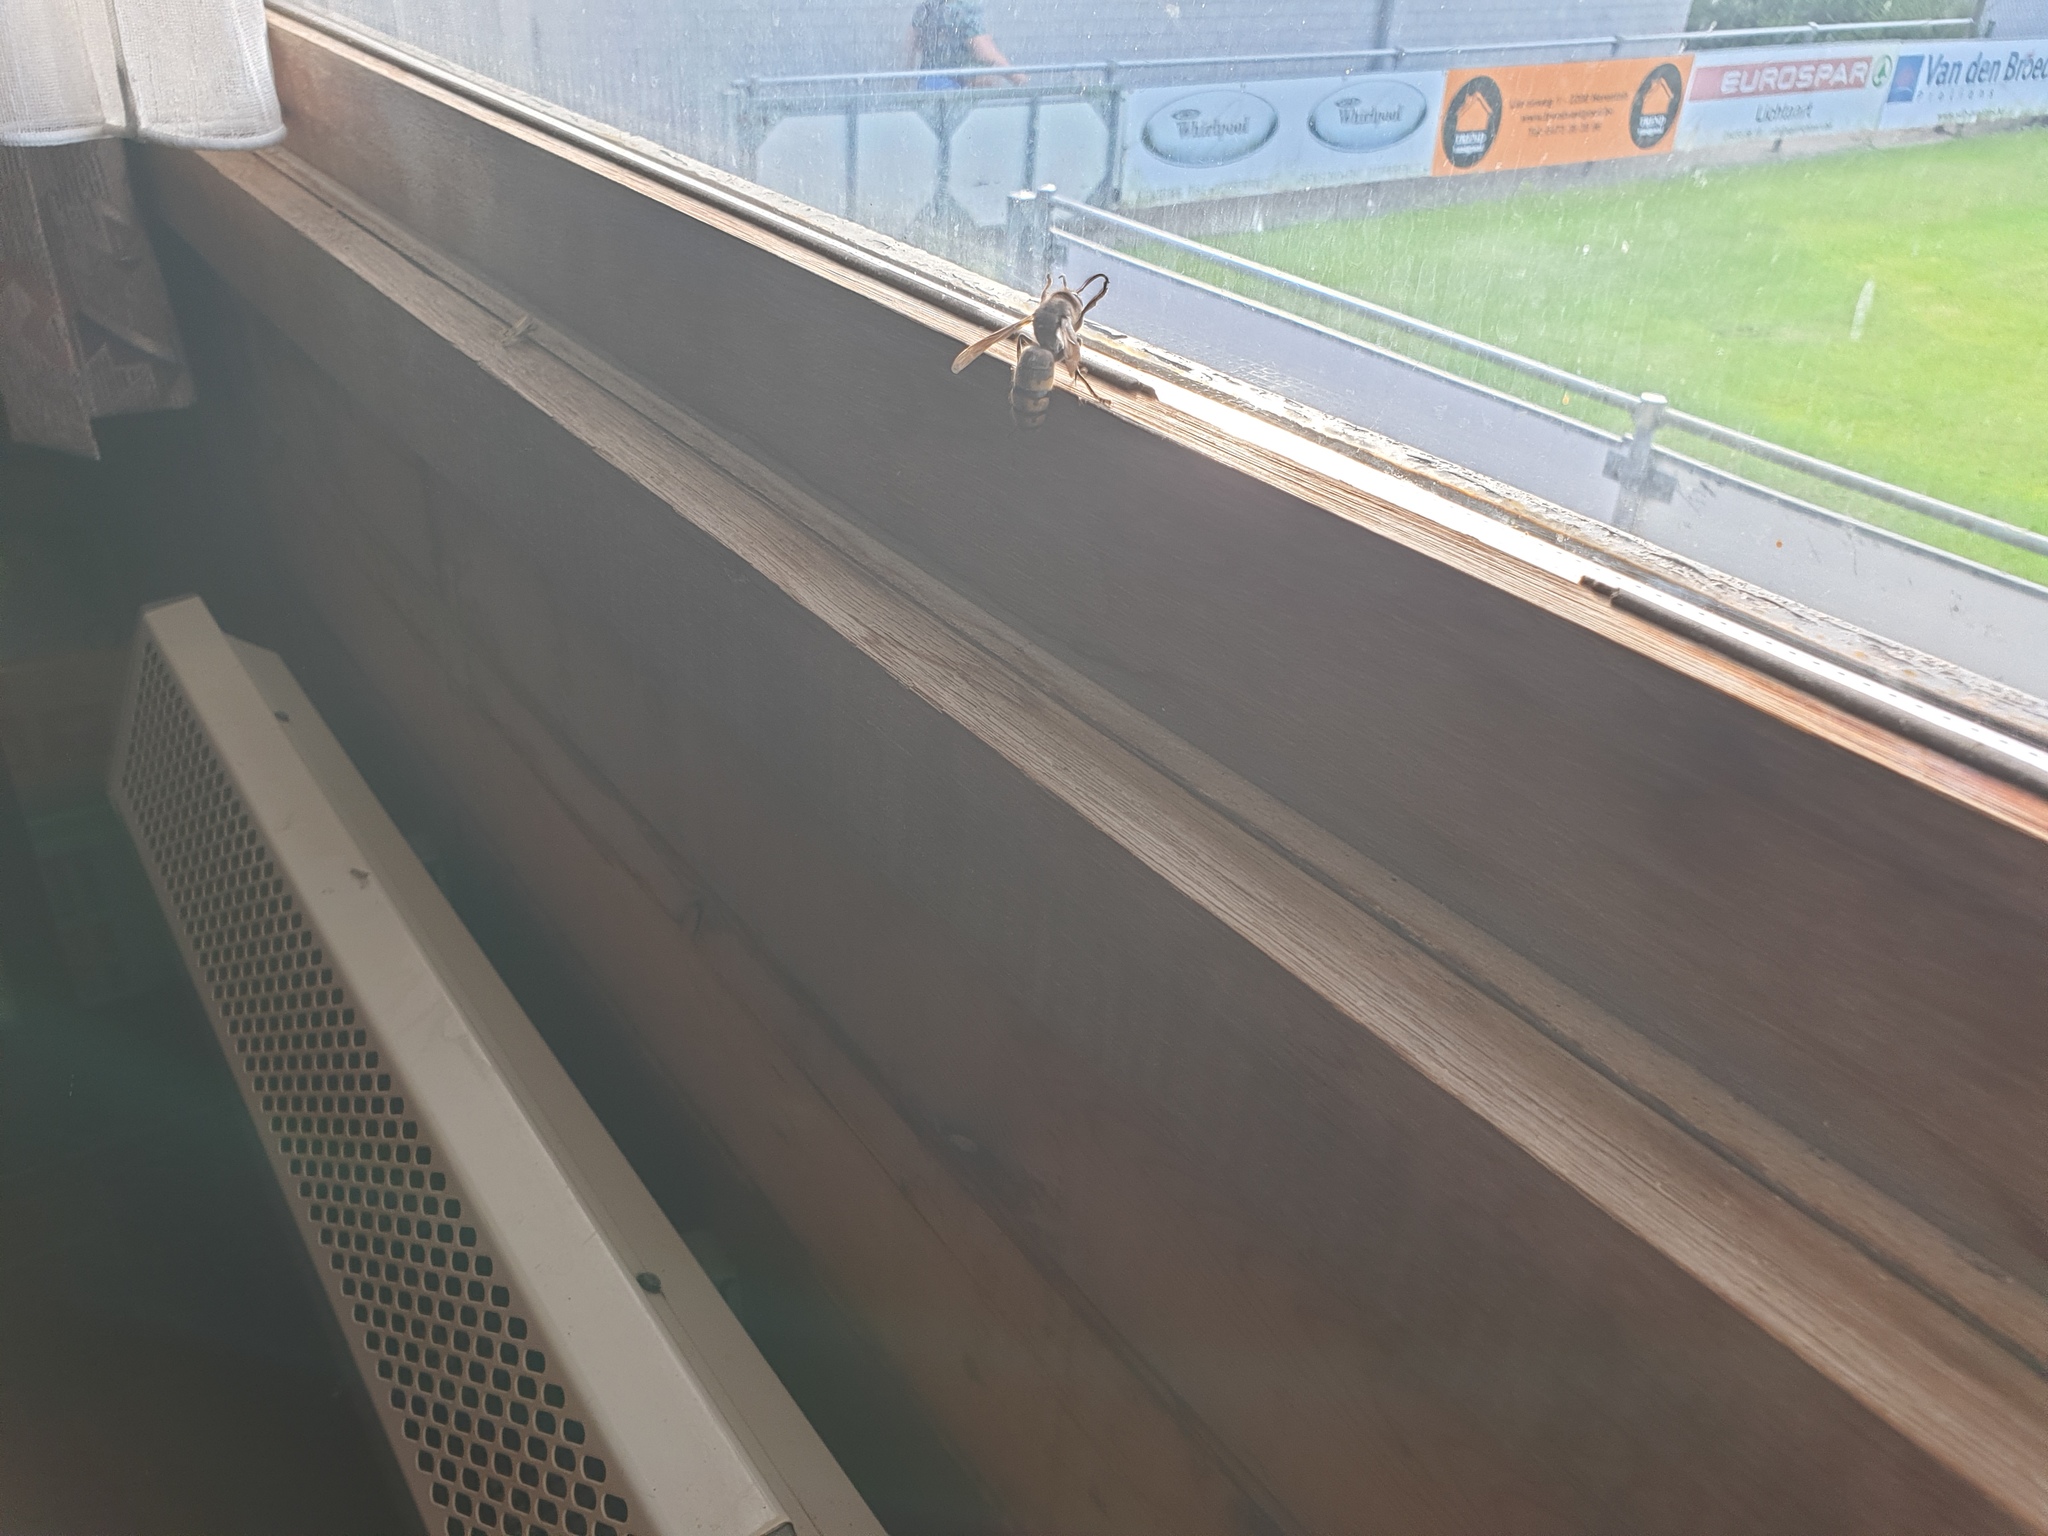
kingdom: Animalia
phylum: Arthropoda
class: Insecta
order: Hymenoptera
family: Vespidae
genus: Vespa
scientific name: Vespa crabro
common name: Hornet
